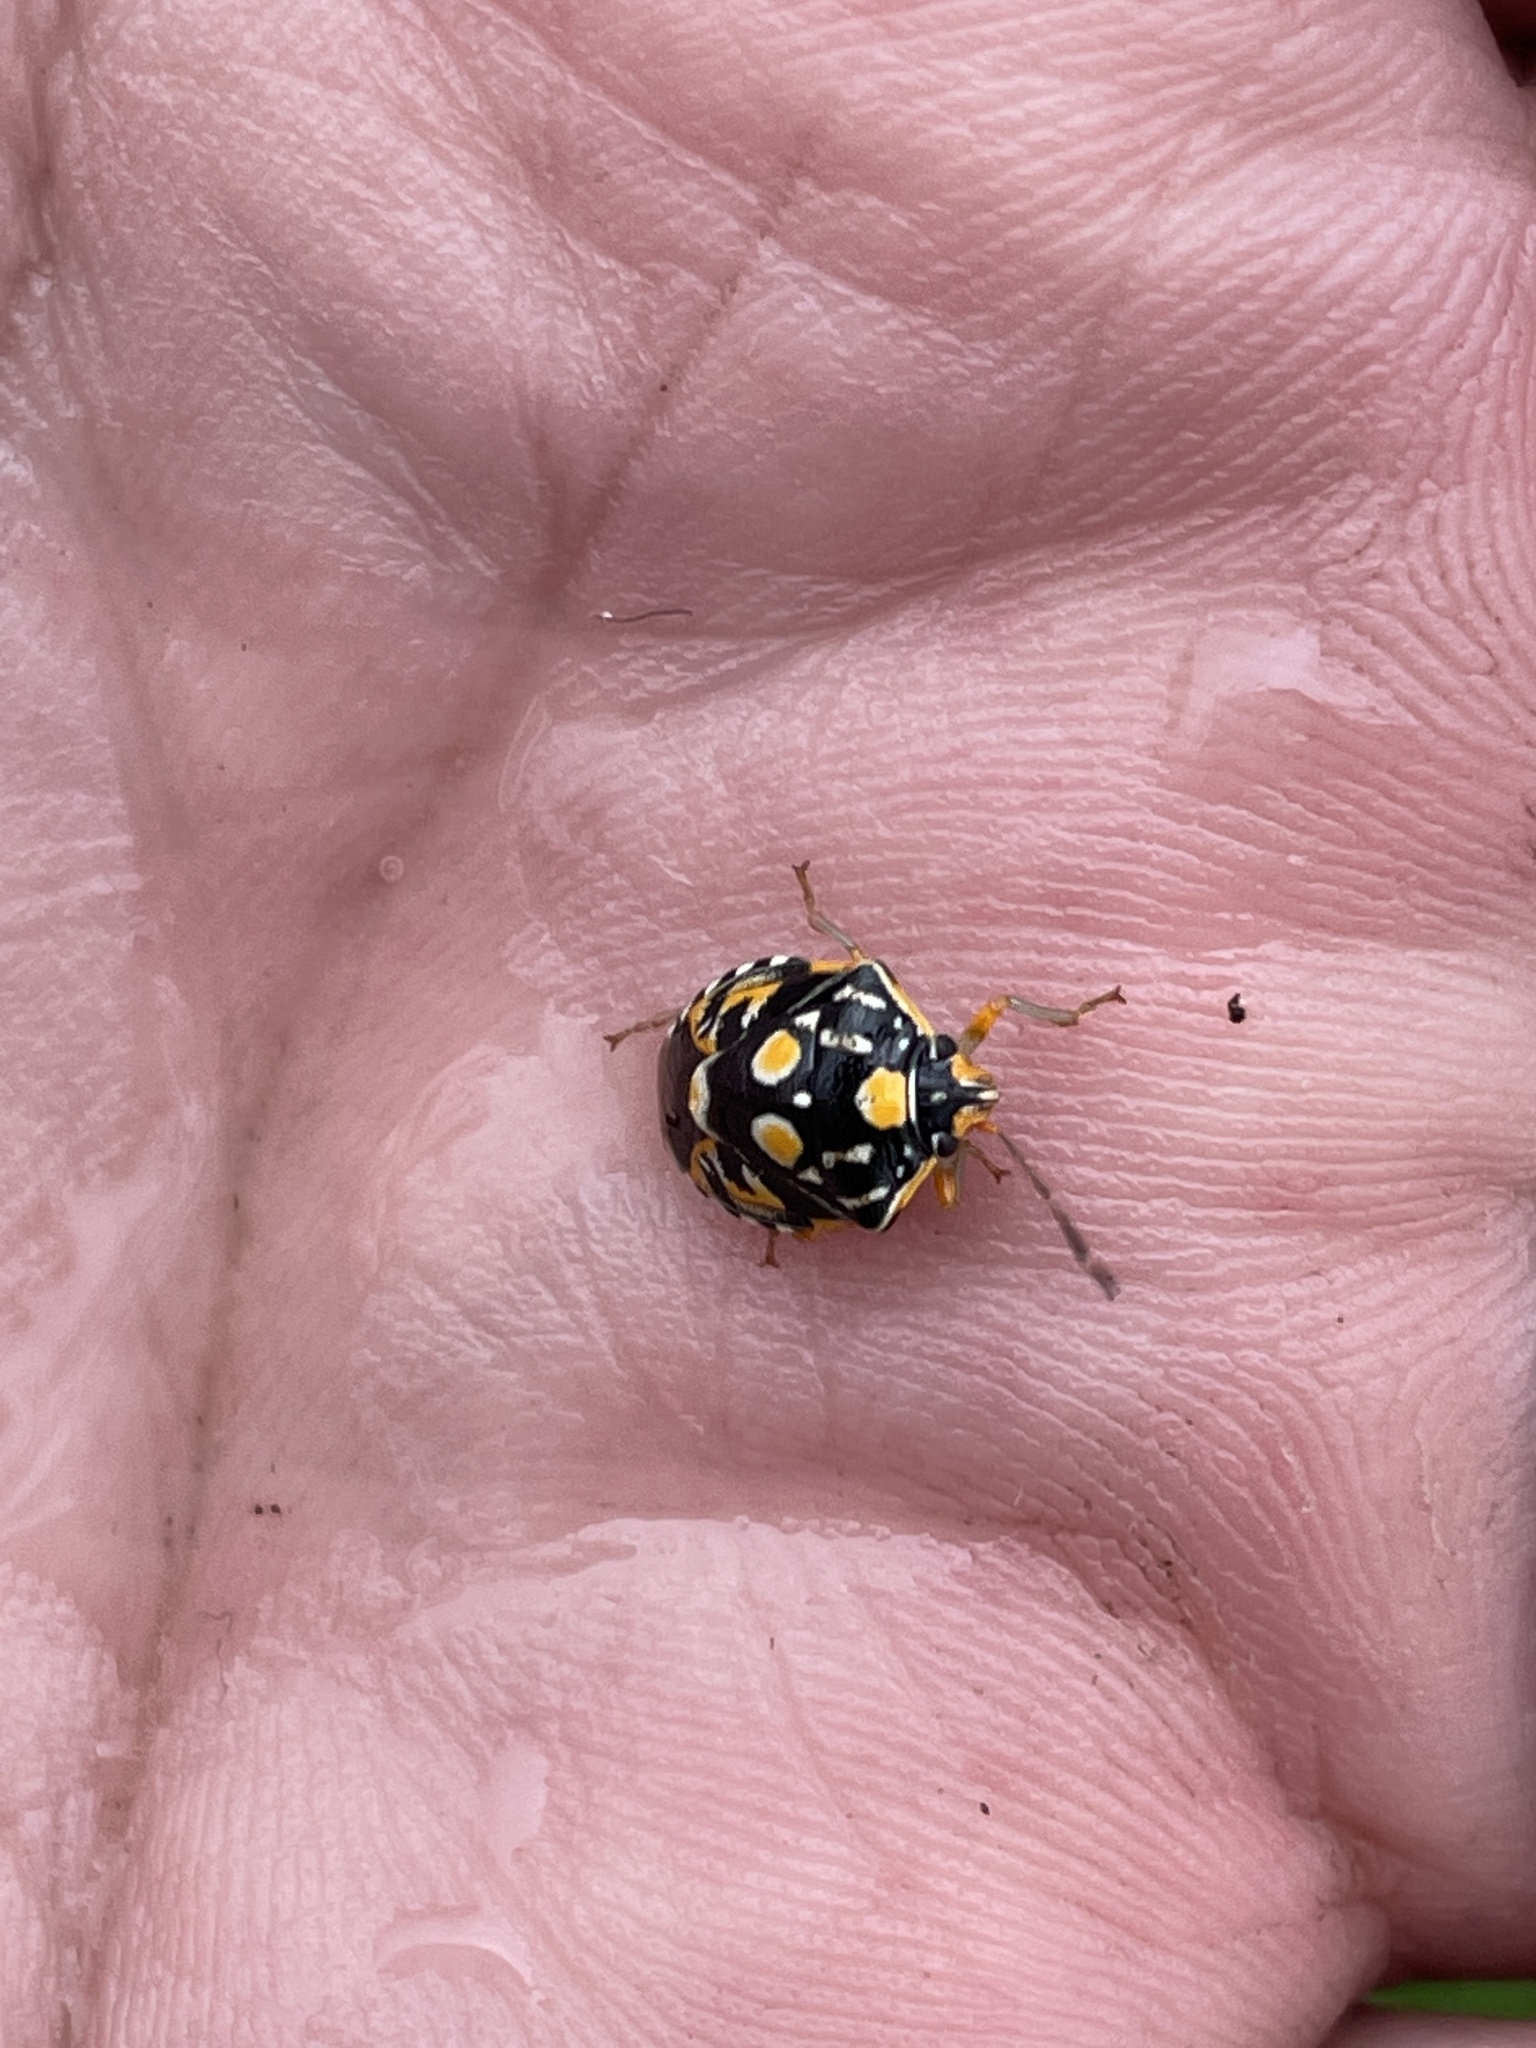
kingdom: Animalia
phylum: Arthropoda
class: Insecta
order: Hemiptera
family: Pentatomidae
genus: Antestiopsis
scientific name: Antestiopsis thunbergii
